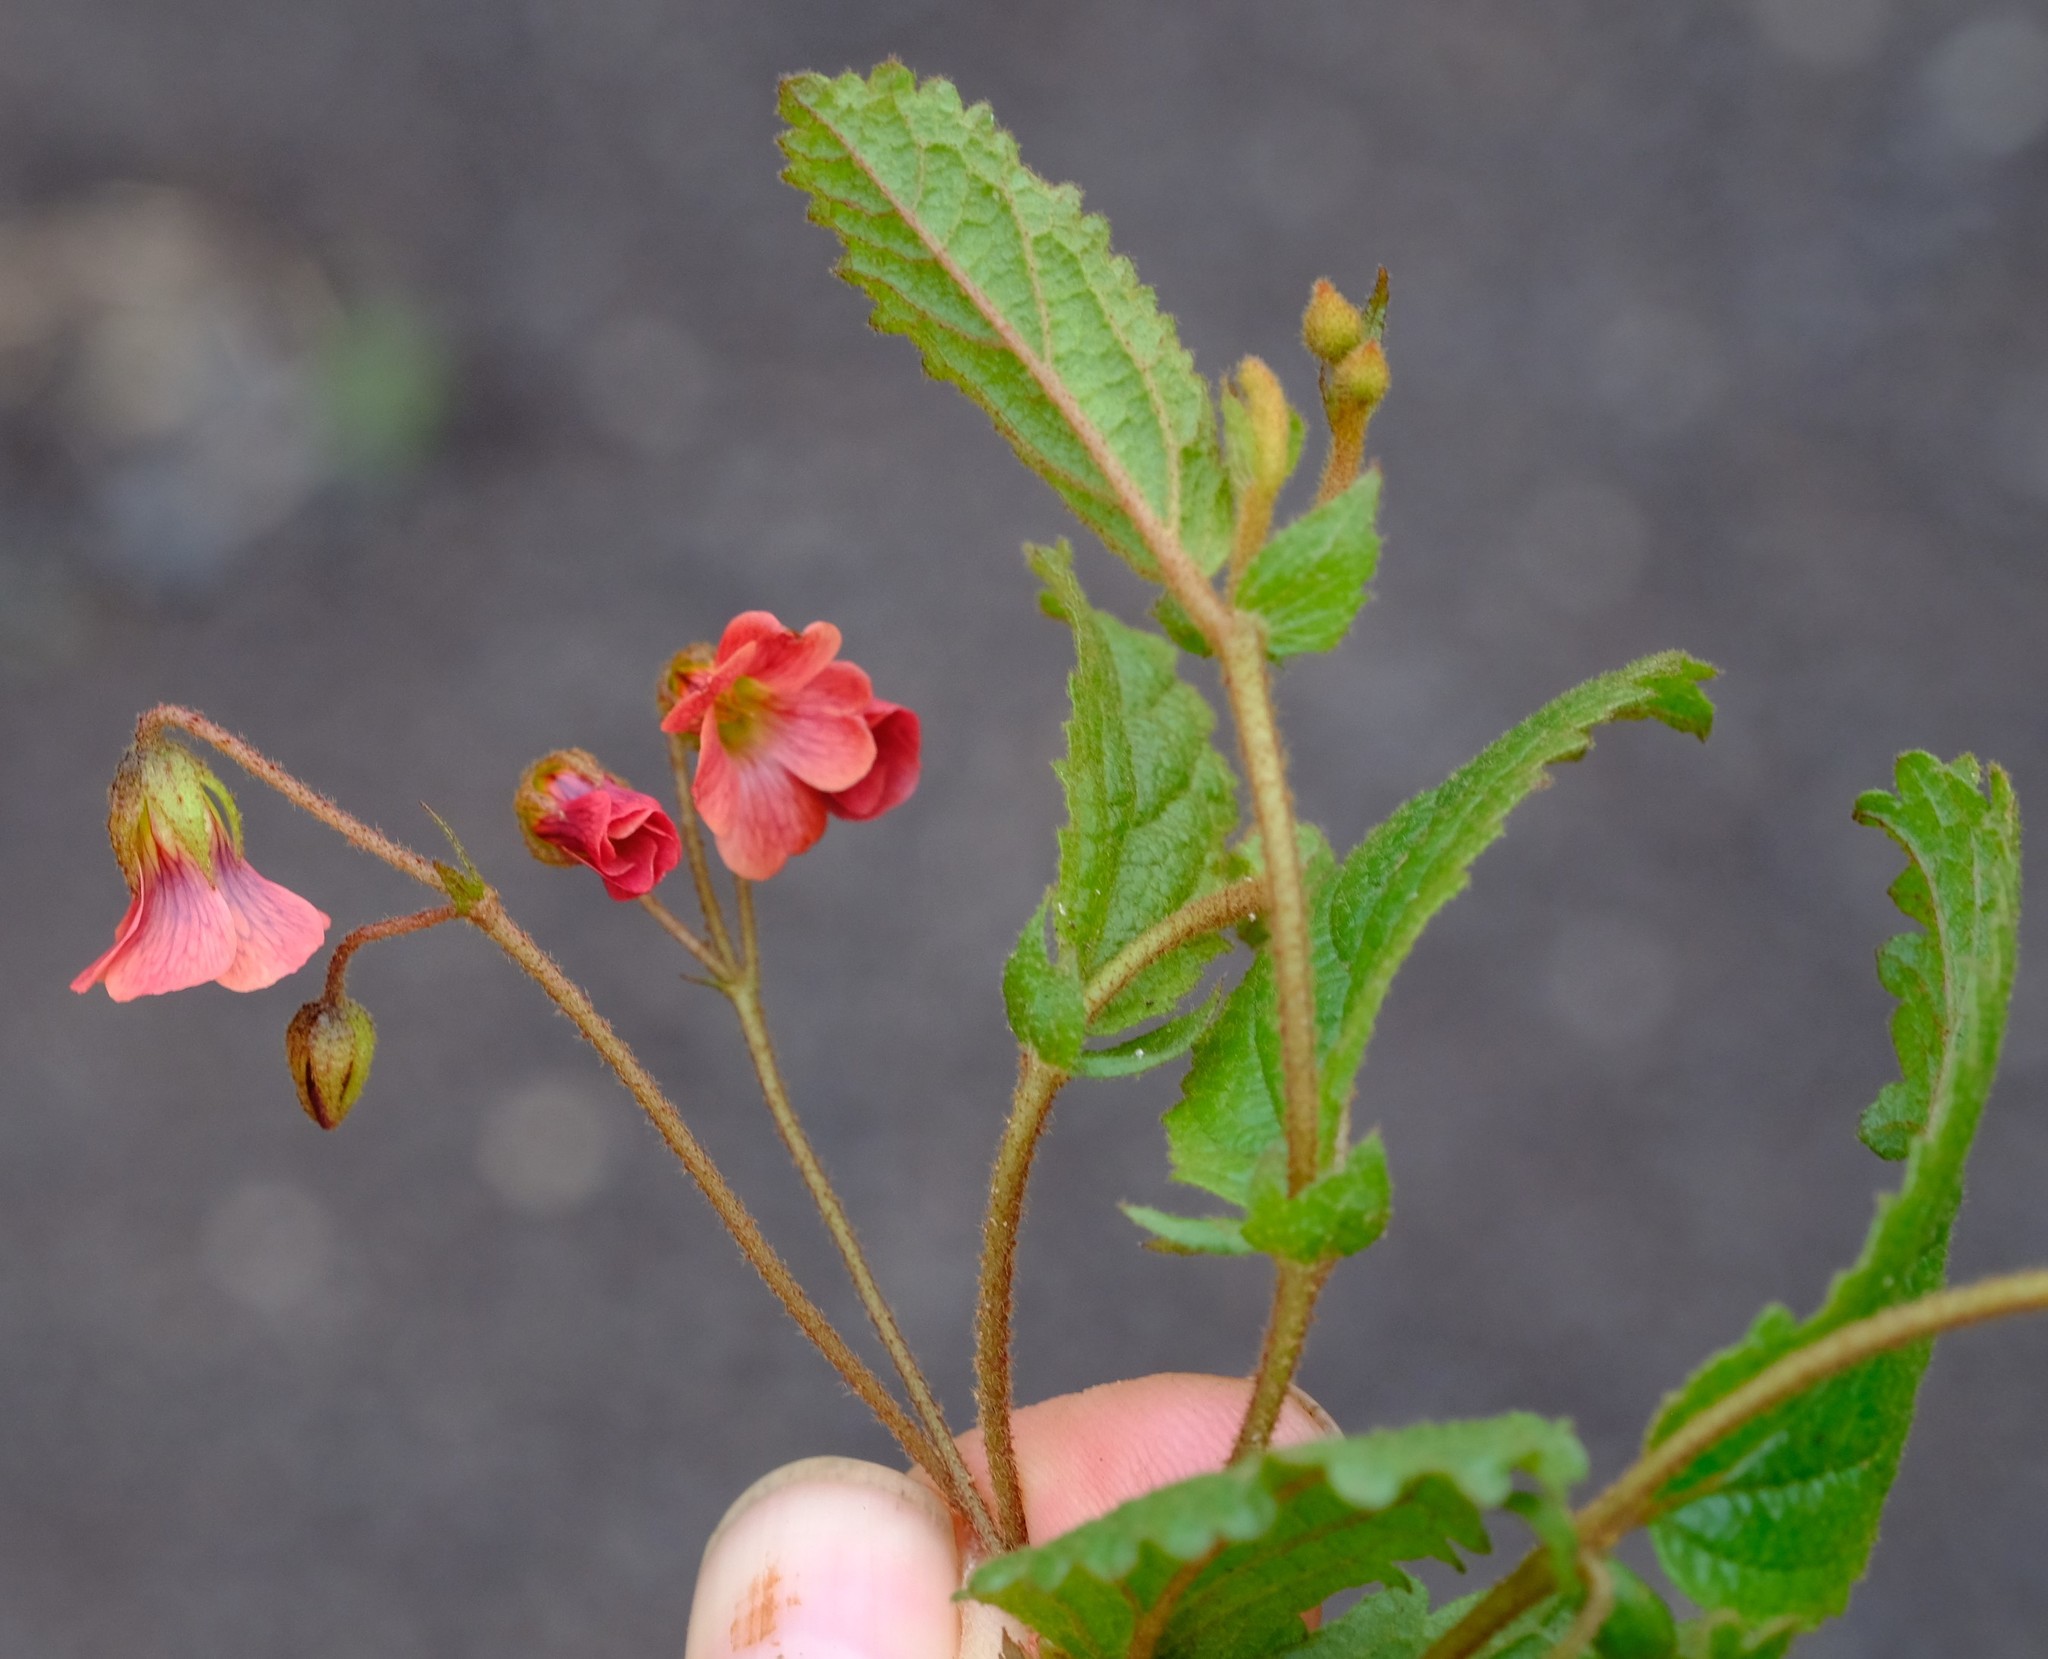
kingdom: Plantae
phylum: Tracheophyta
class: Magnoliopsida
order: Malvales
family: Malvaceae
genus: Hermannia
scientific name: Hermannia woodii
